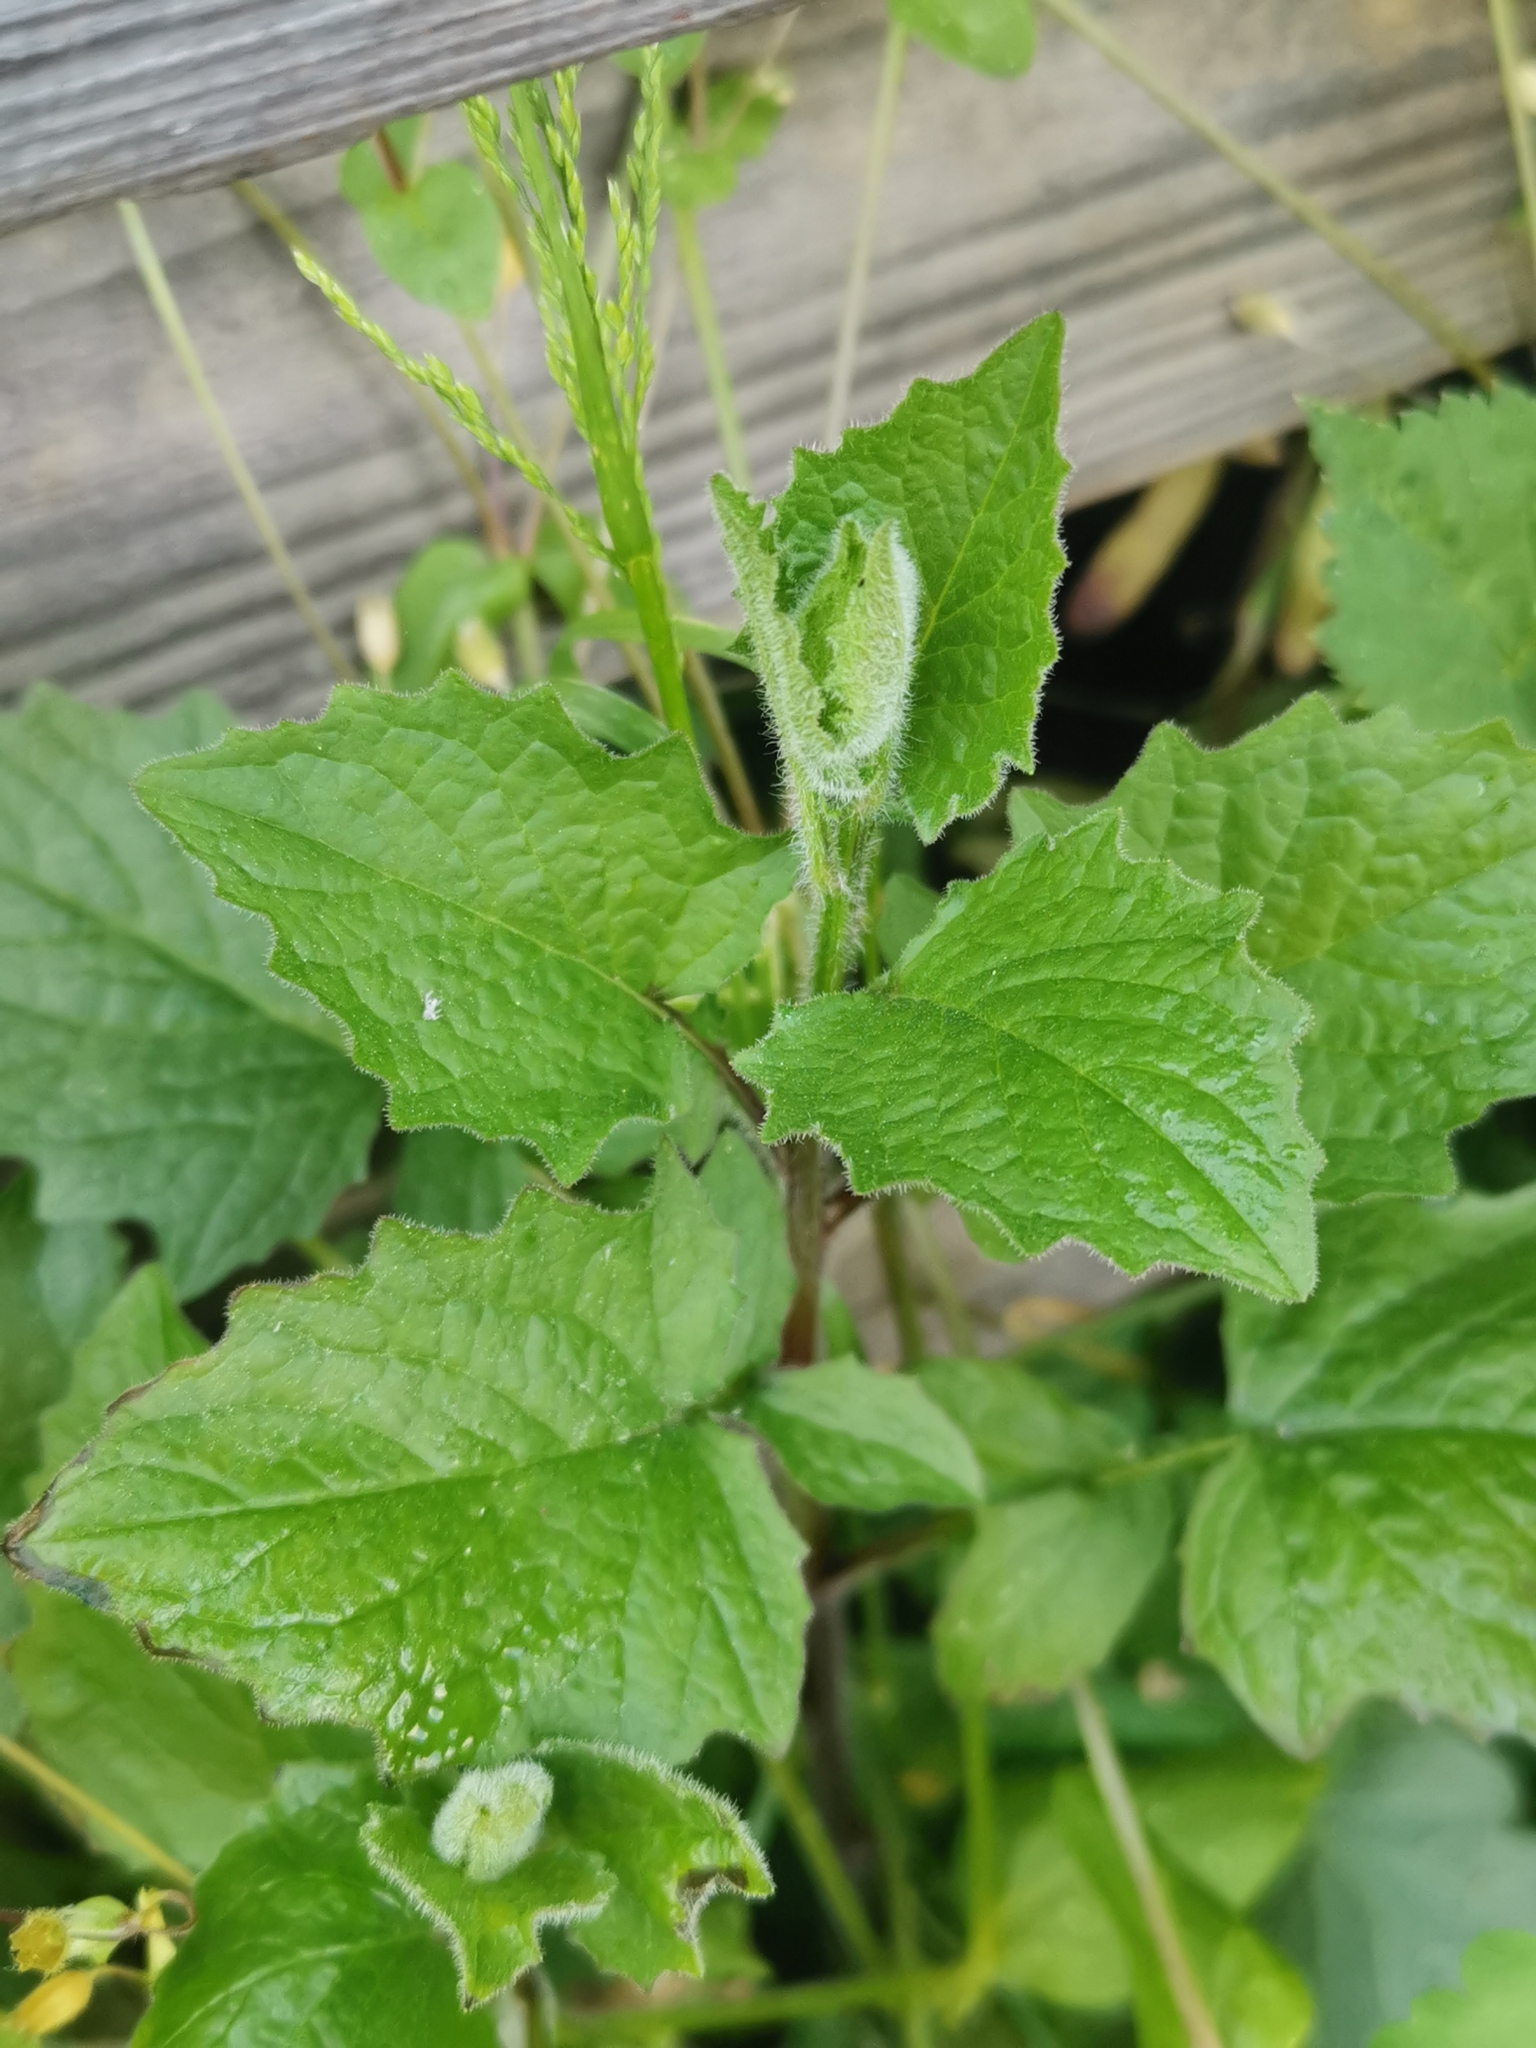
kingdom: Plantae
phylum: Tracheophyta
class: Magnoliopsida
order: Asterales
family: Asteraceae
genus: Lapsana
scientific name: Lapsana communis
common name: Nipplewort
